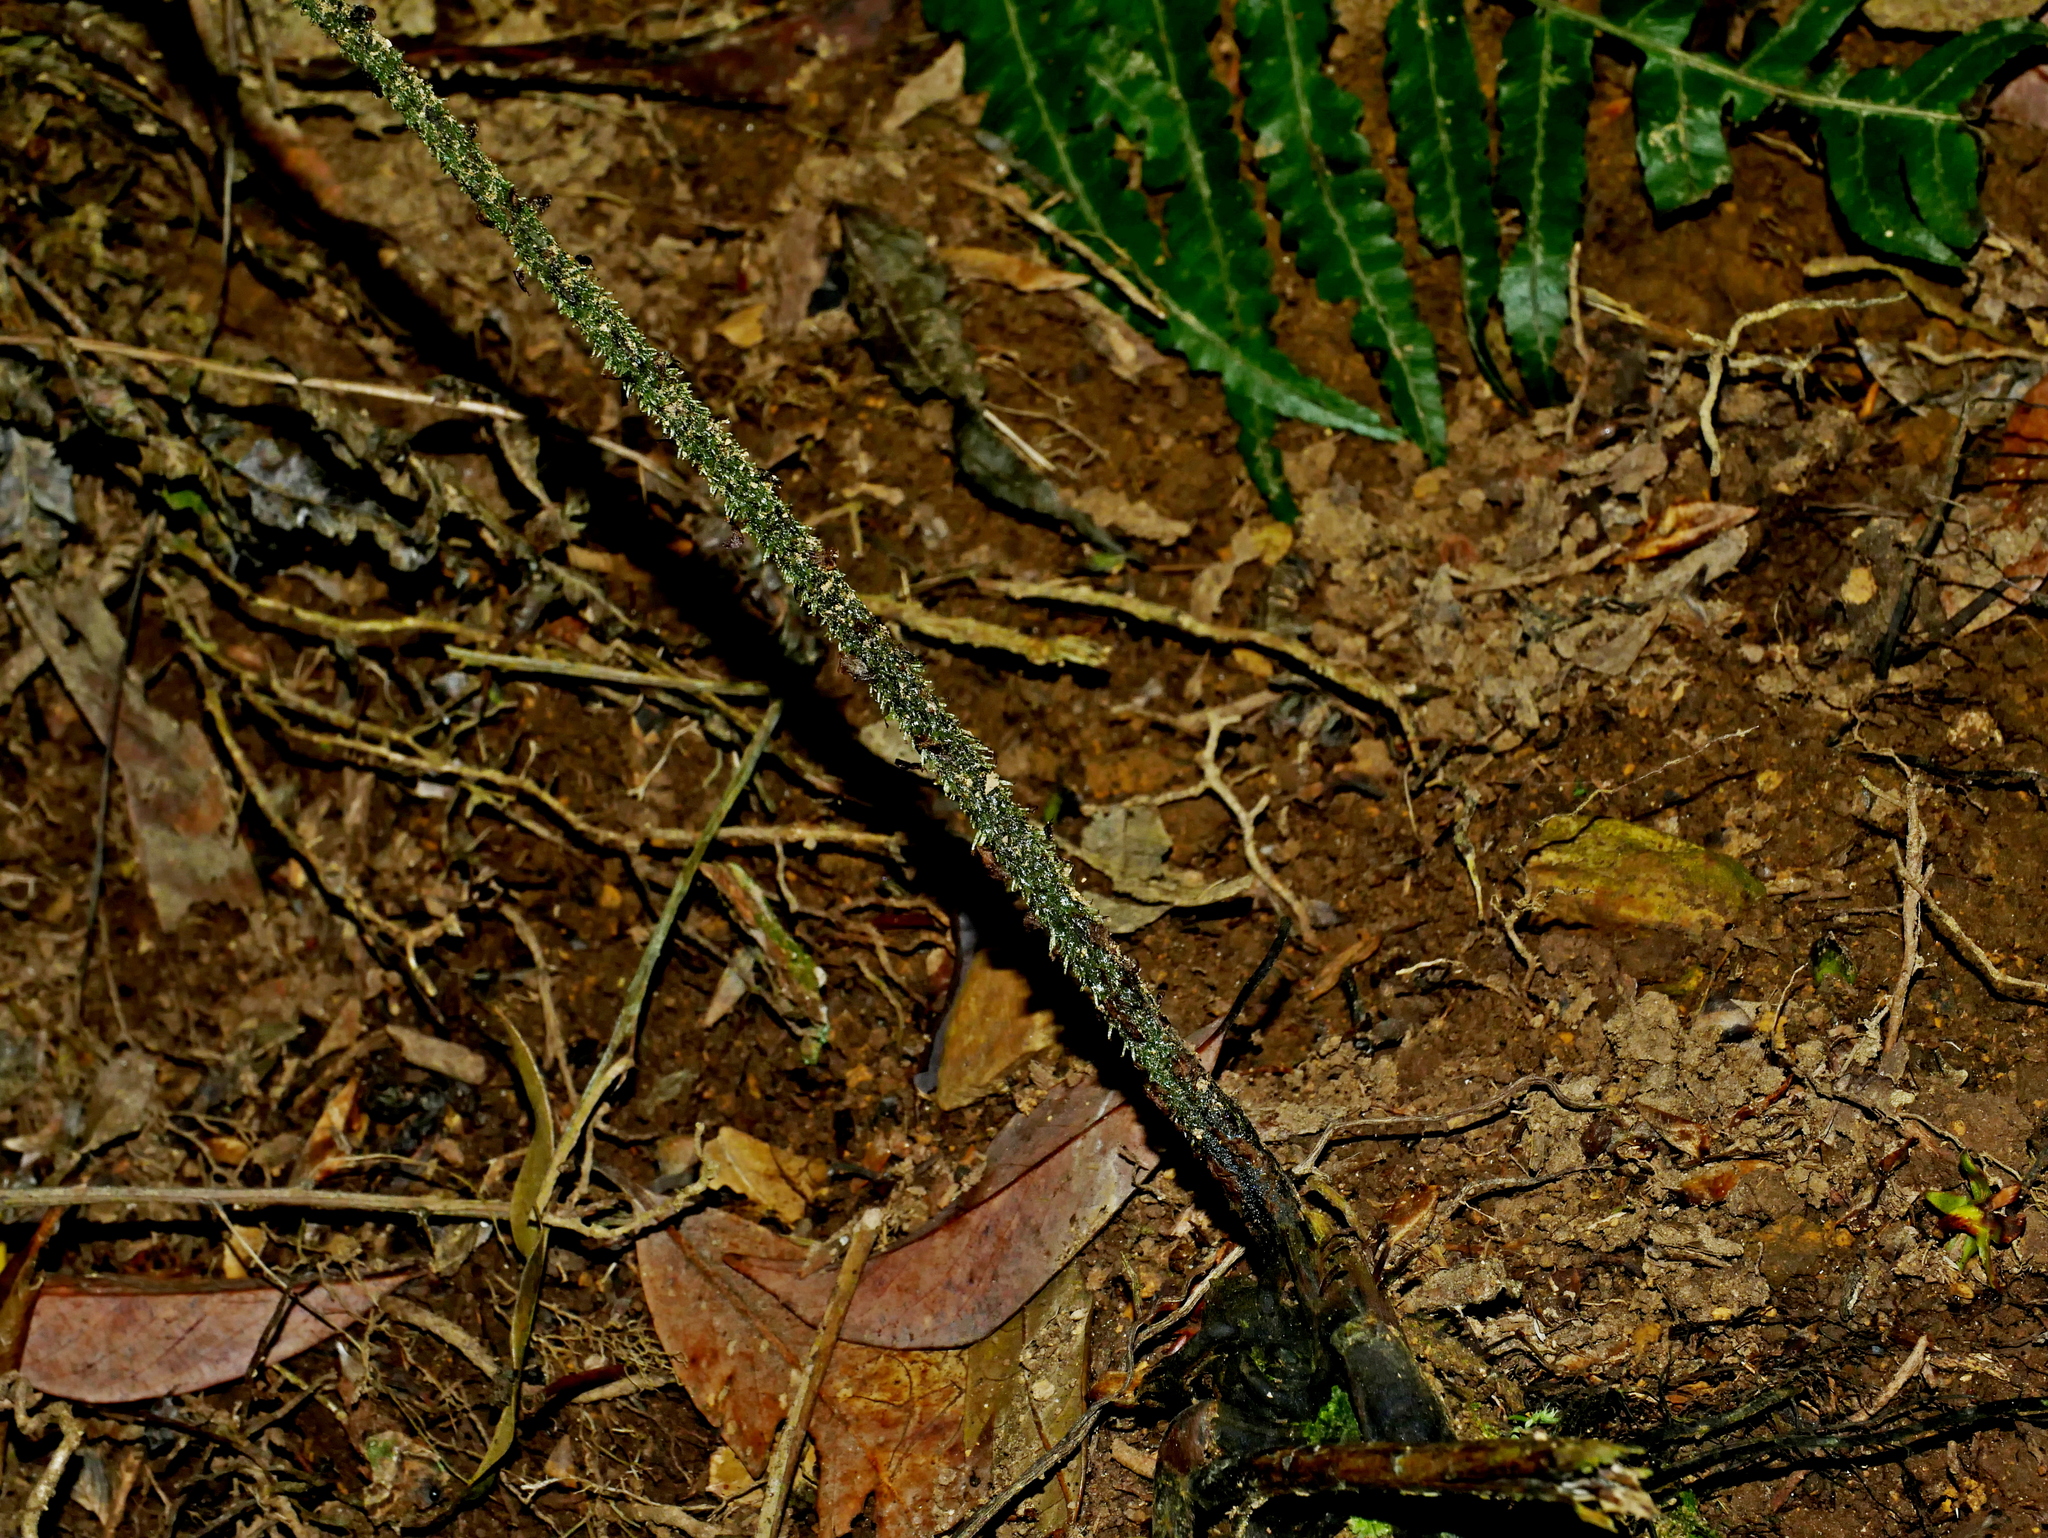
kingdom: Plantae
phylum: Tracheophyta
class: Polypodiopsida
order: Polypodiales
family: Athyriaceae
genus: Diplazium
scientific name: Diplazium kawakamii
